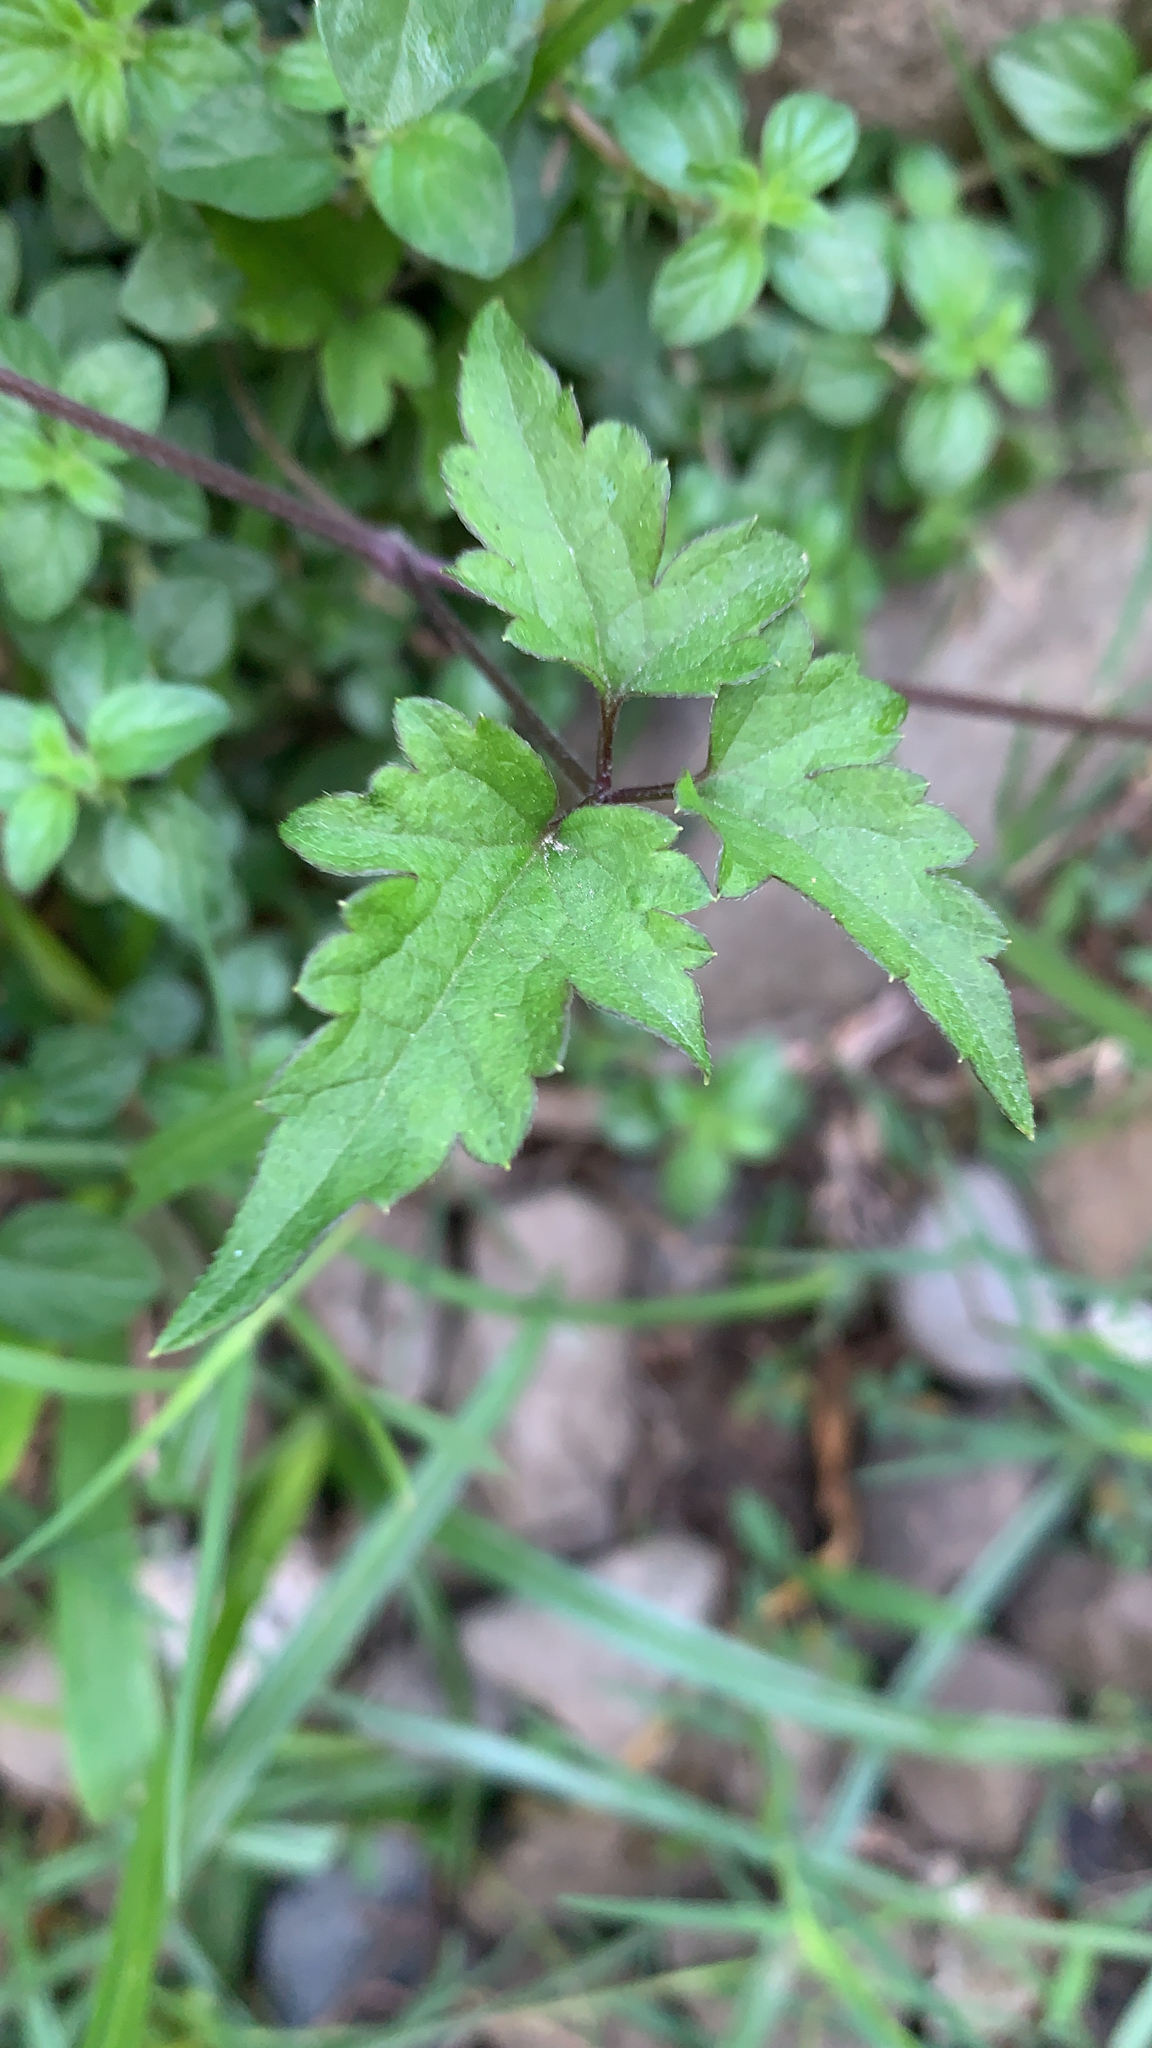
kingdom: Plantae
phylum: Tracheophyta
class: Magnoliopsida
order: Ranunculales
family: Ranunculaceae
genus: Clematis
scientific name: Clematis grata
